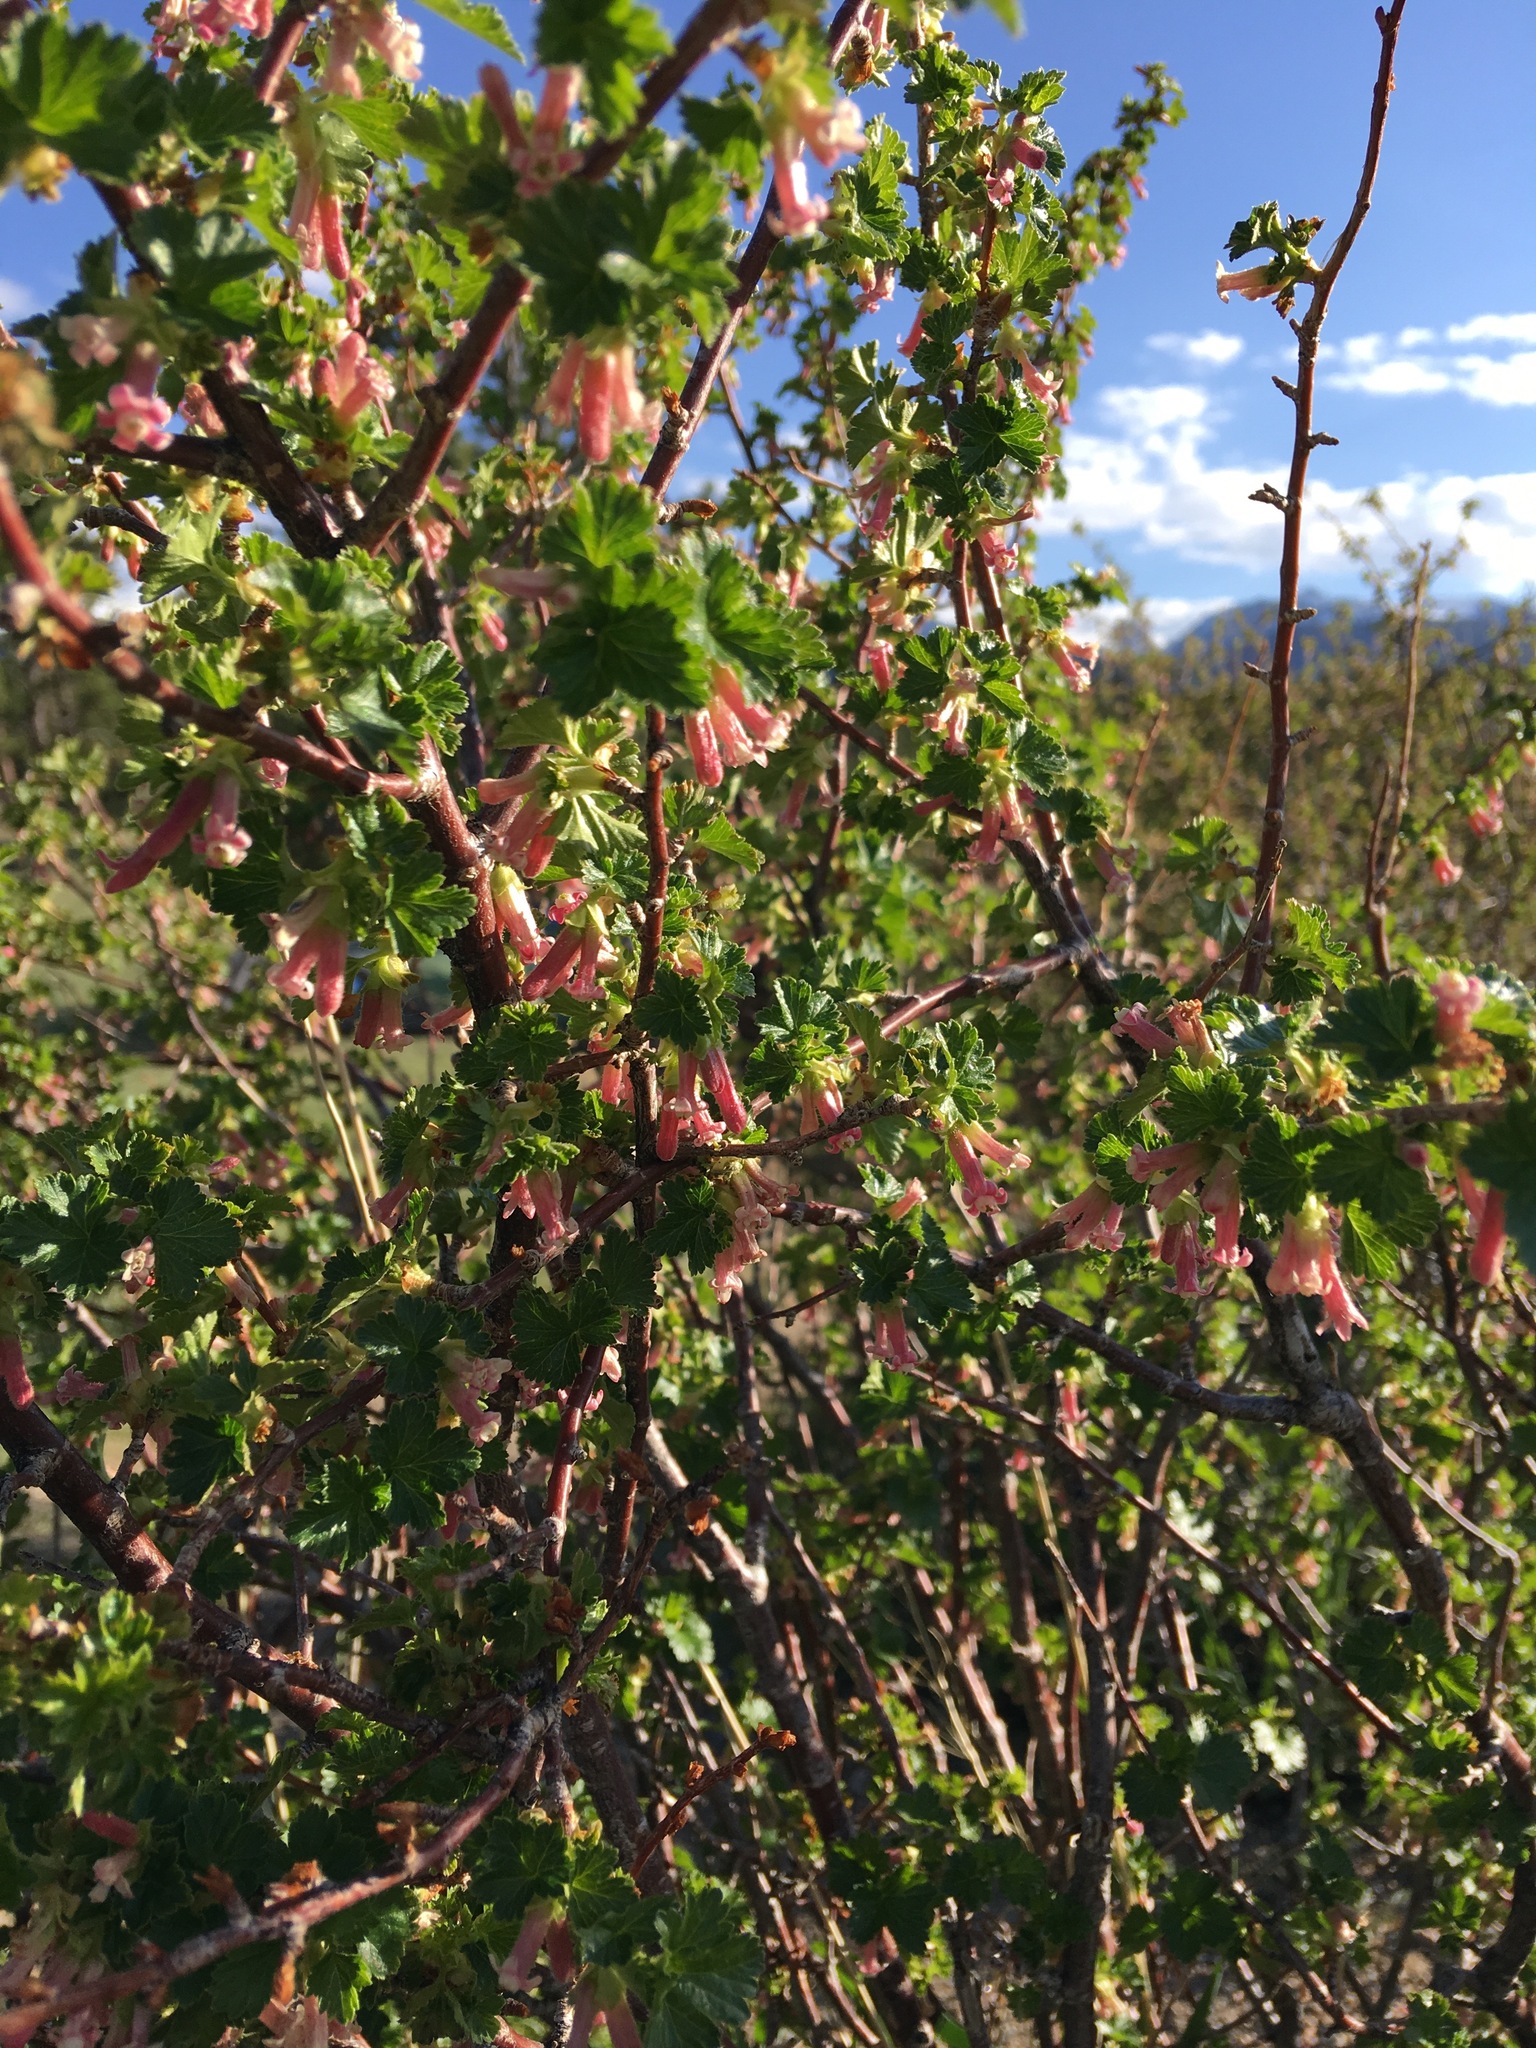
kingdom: Plantae
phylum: Tracheophyta
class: Magnoliopsida
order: Saxifragales
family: Grossulariaceae
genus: Ribes
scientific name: Ribes cereum
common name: Wax currant
